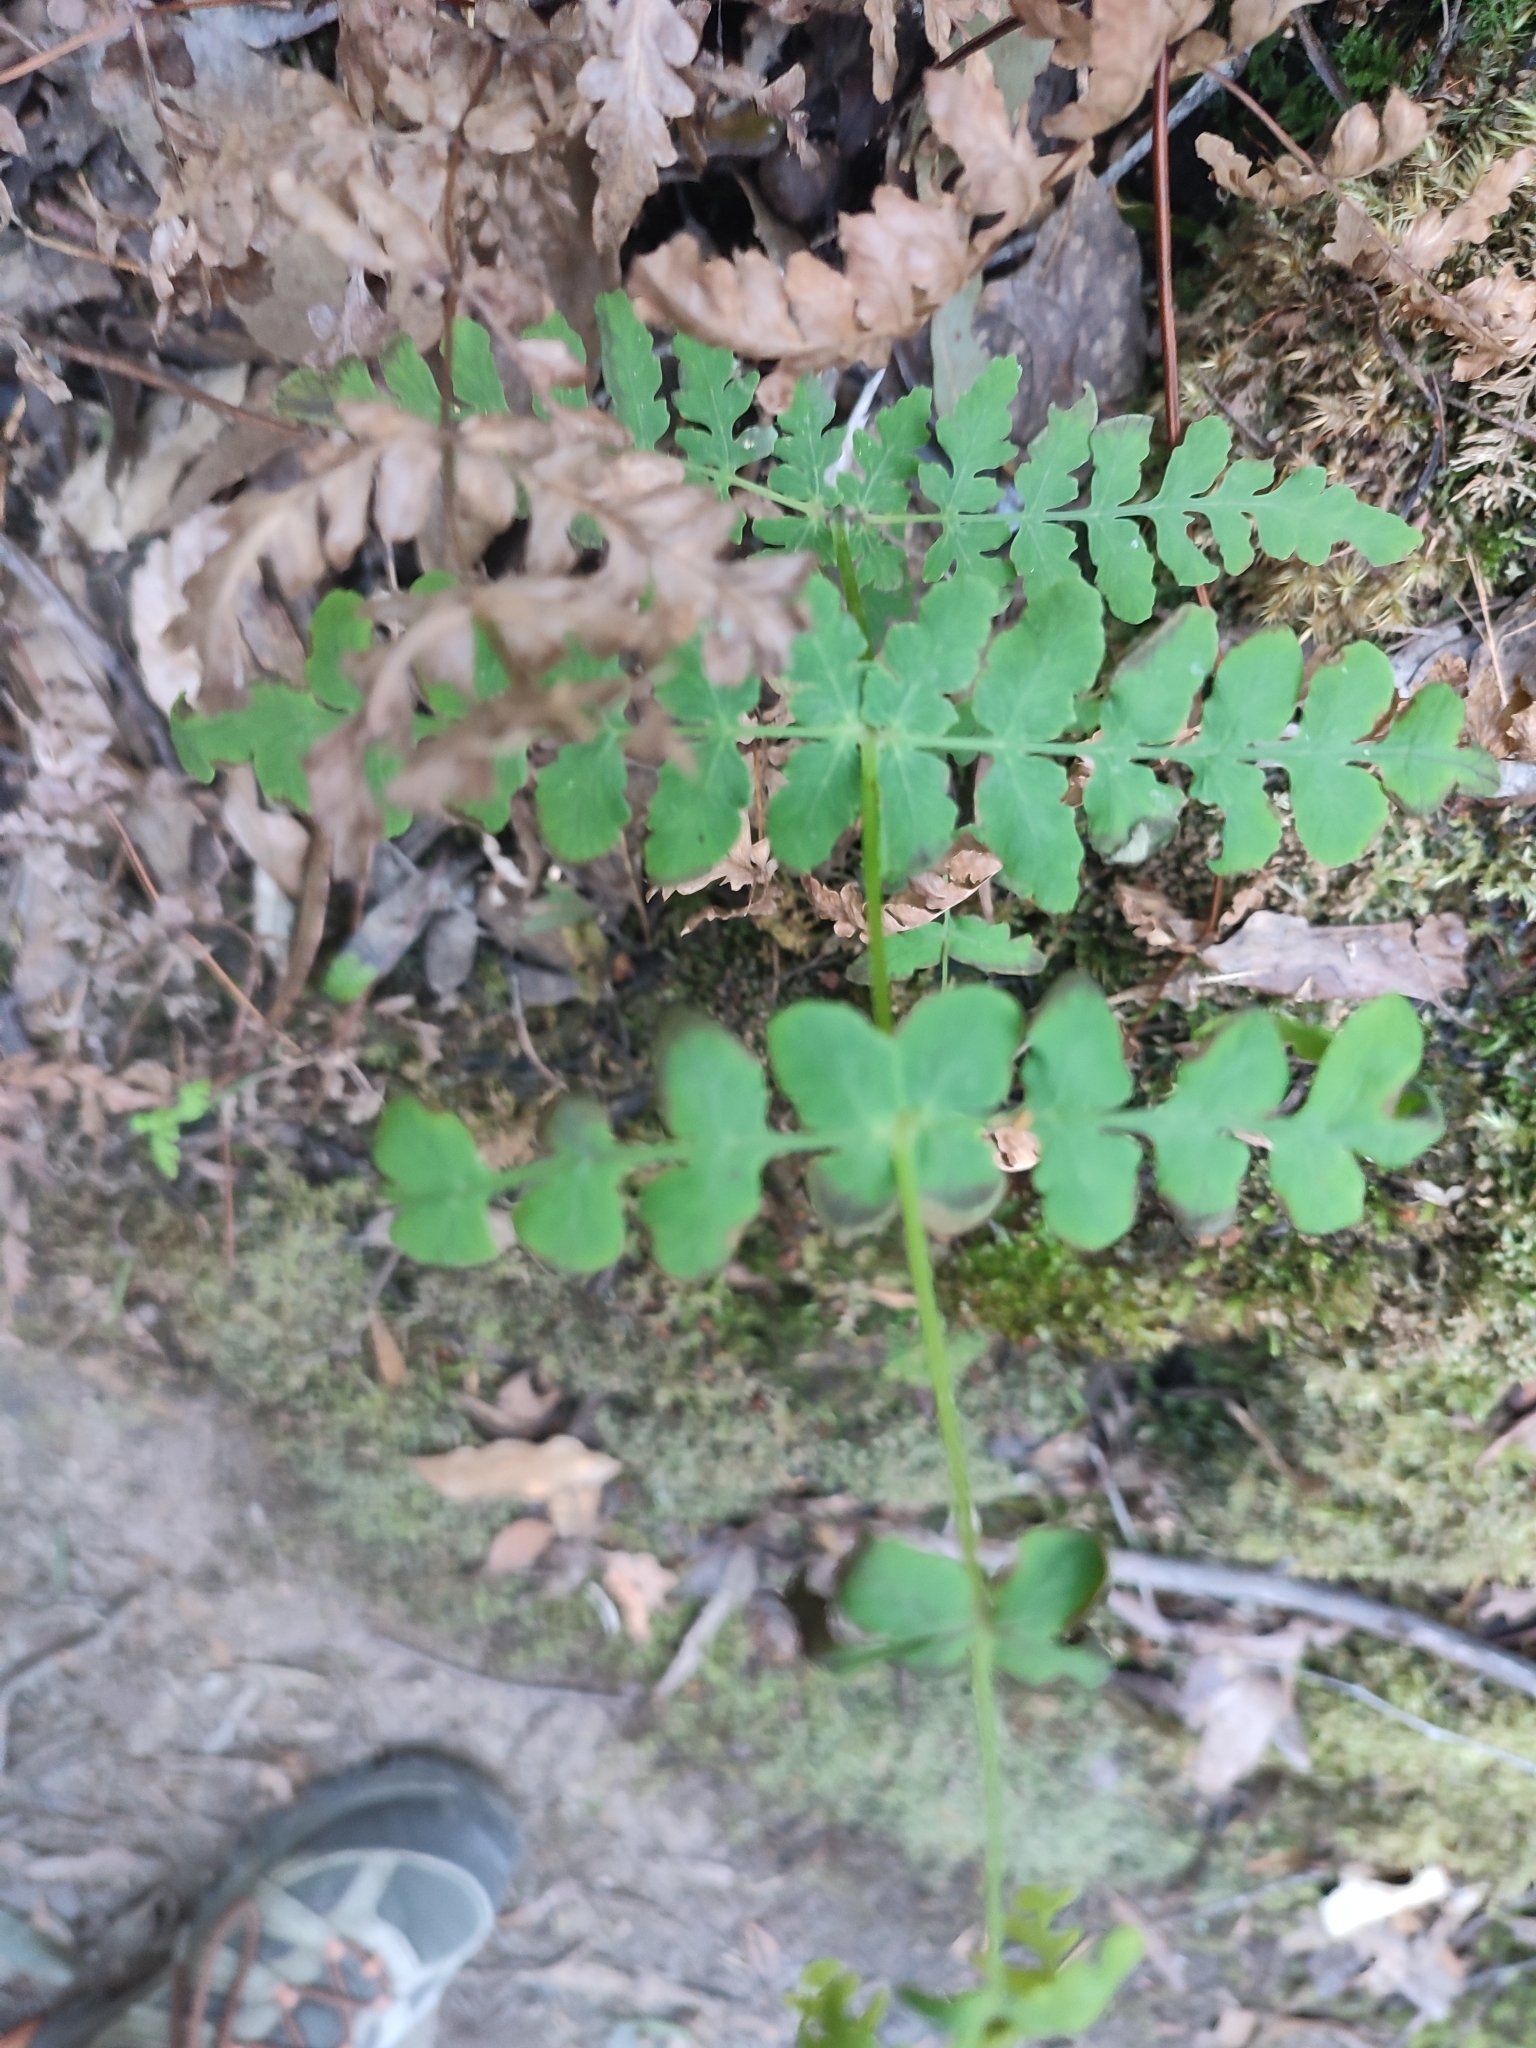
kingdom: Plantae
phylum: Tracheophyta
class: Polypodiopsida
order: Polypodiales
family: Dennstaedtiaceae
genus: Histiopteris
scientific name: Histiopteris incisa
